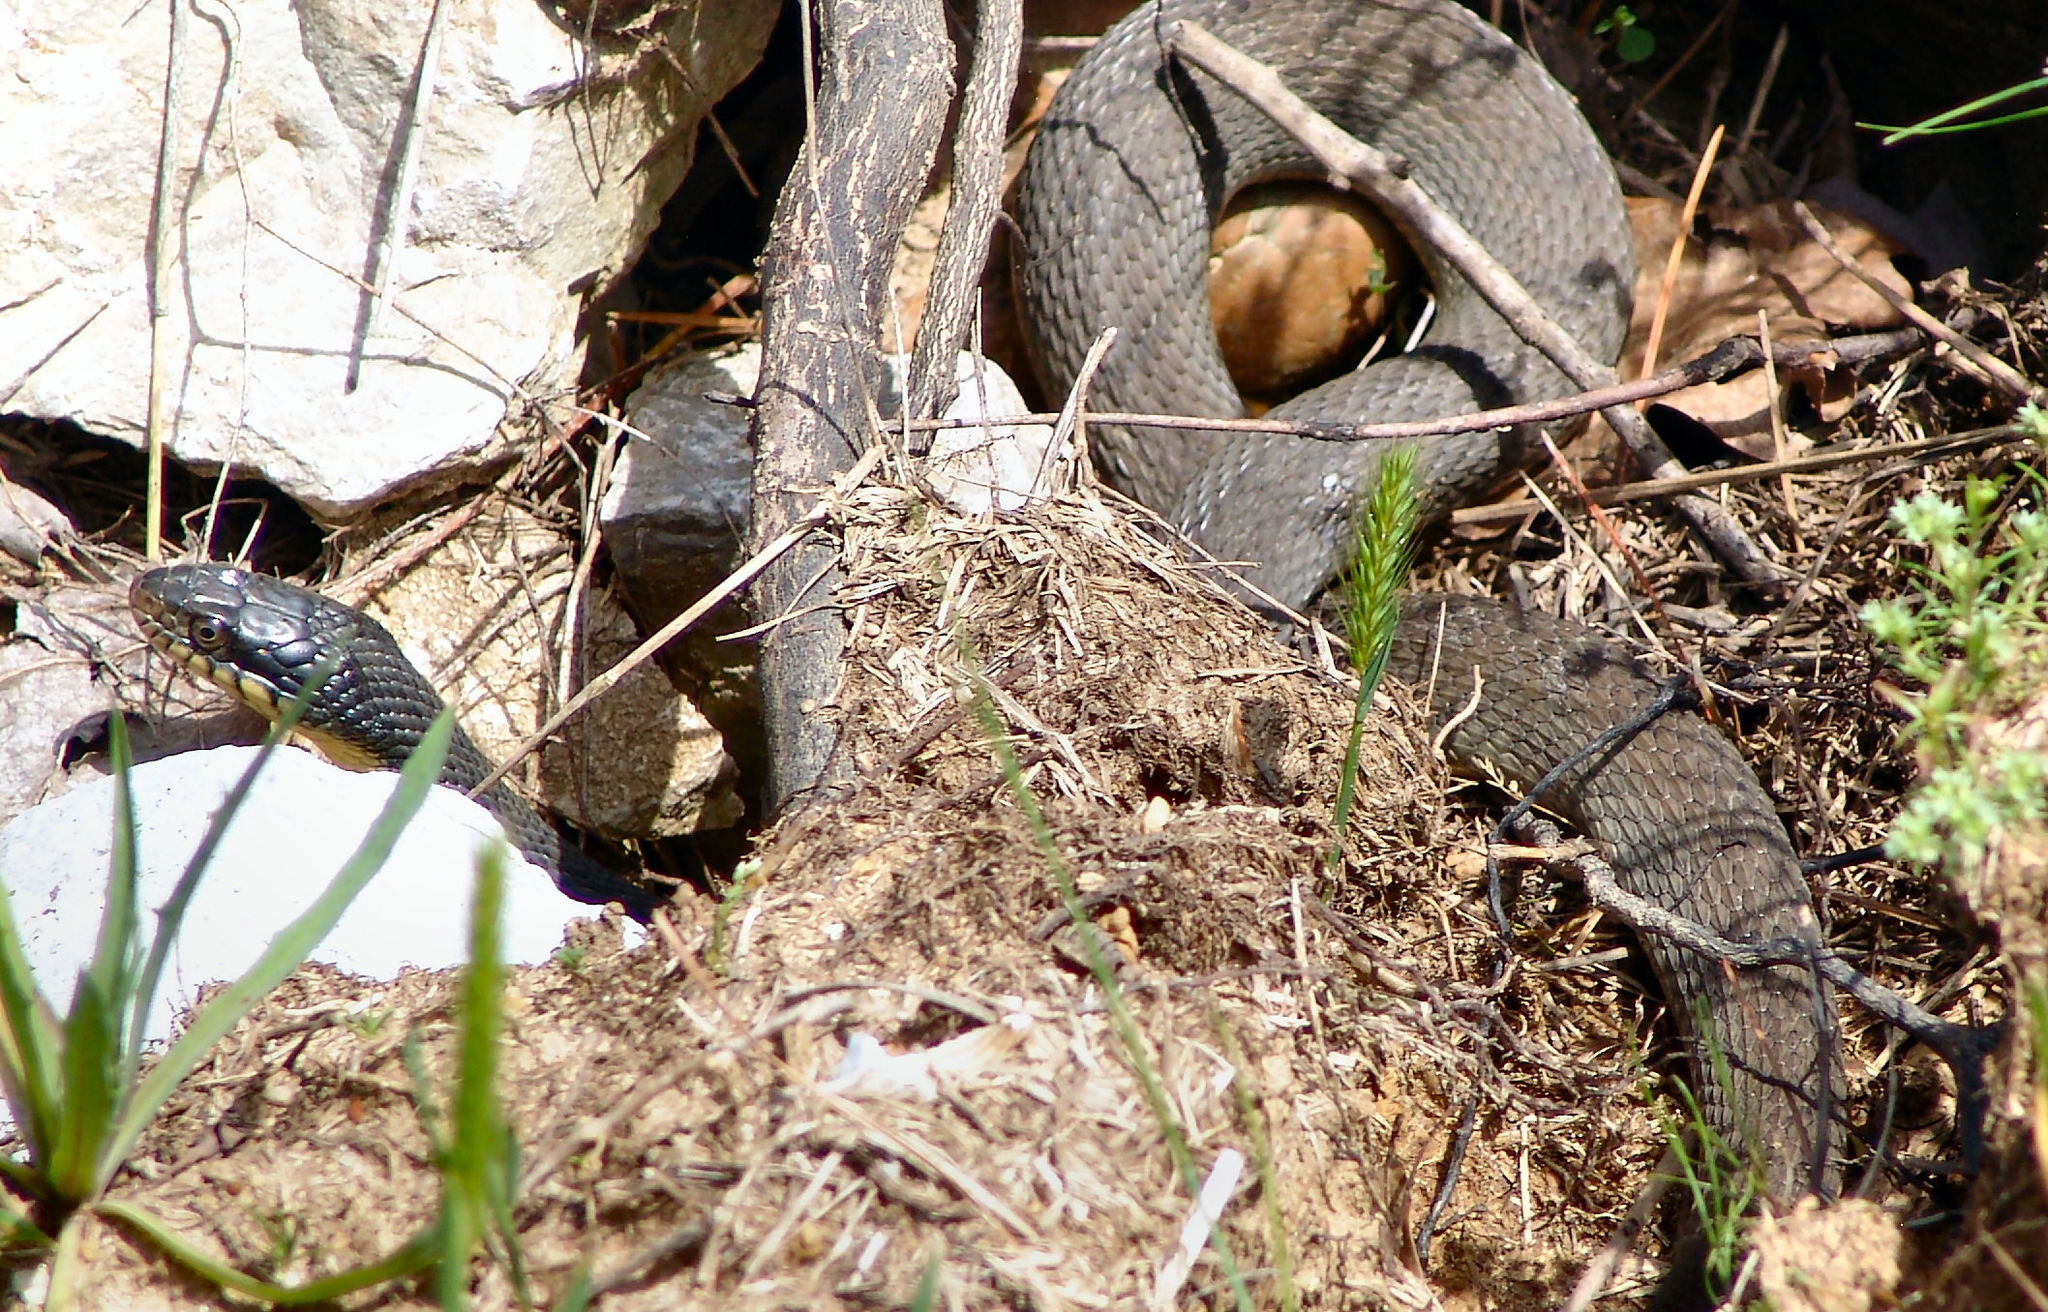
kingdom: Animalia
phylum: Chordata
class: Squamata
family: Colubridae
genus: Nerodia
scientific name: Nerodia erythrogaster
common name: Plainbelly water snake
